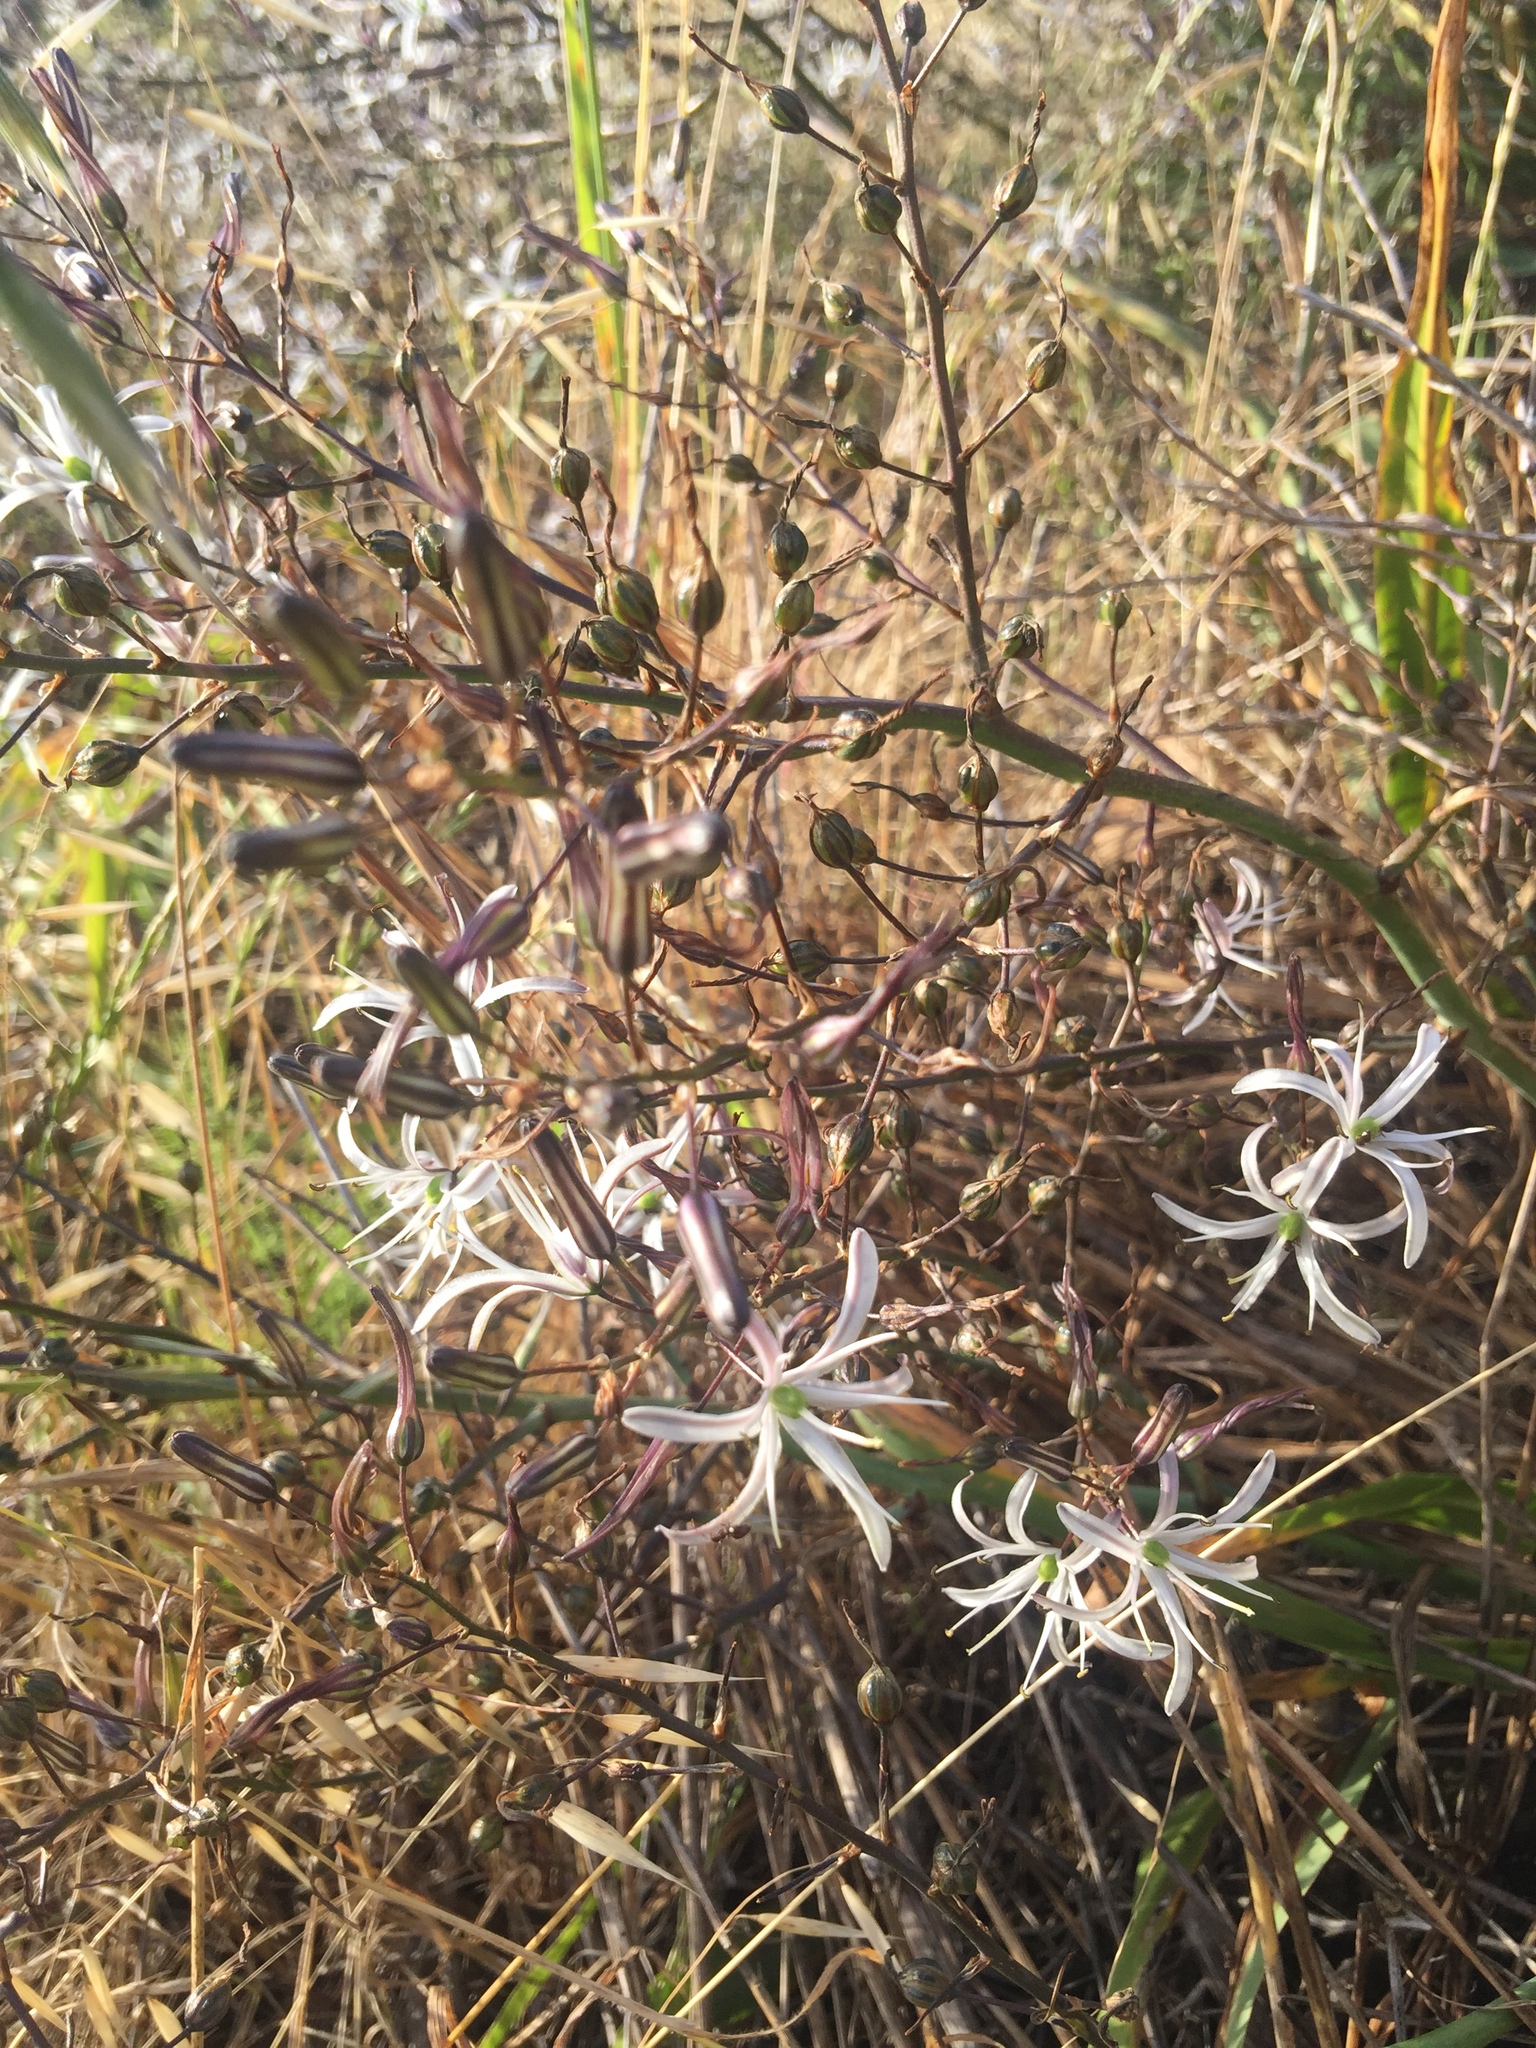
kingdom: Plantae
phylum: Tracheophyta
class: Liliopsida
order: Asparagales
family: Asparagaceae
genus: Chlorogalum
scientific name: Chlorogalum pomeridianum
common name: Amole
